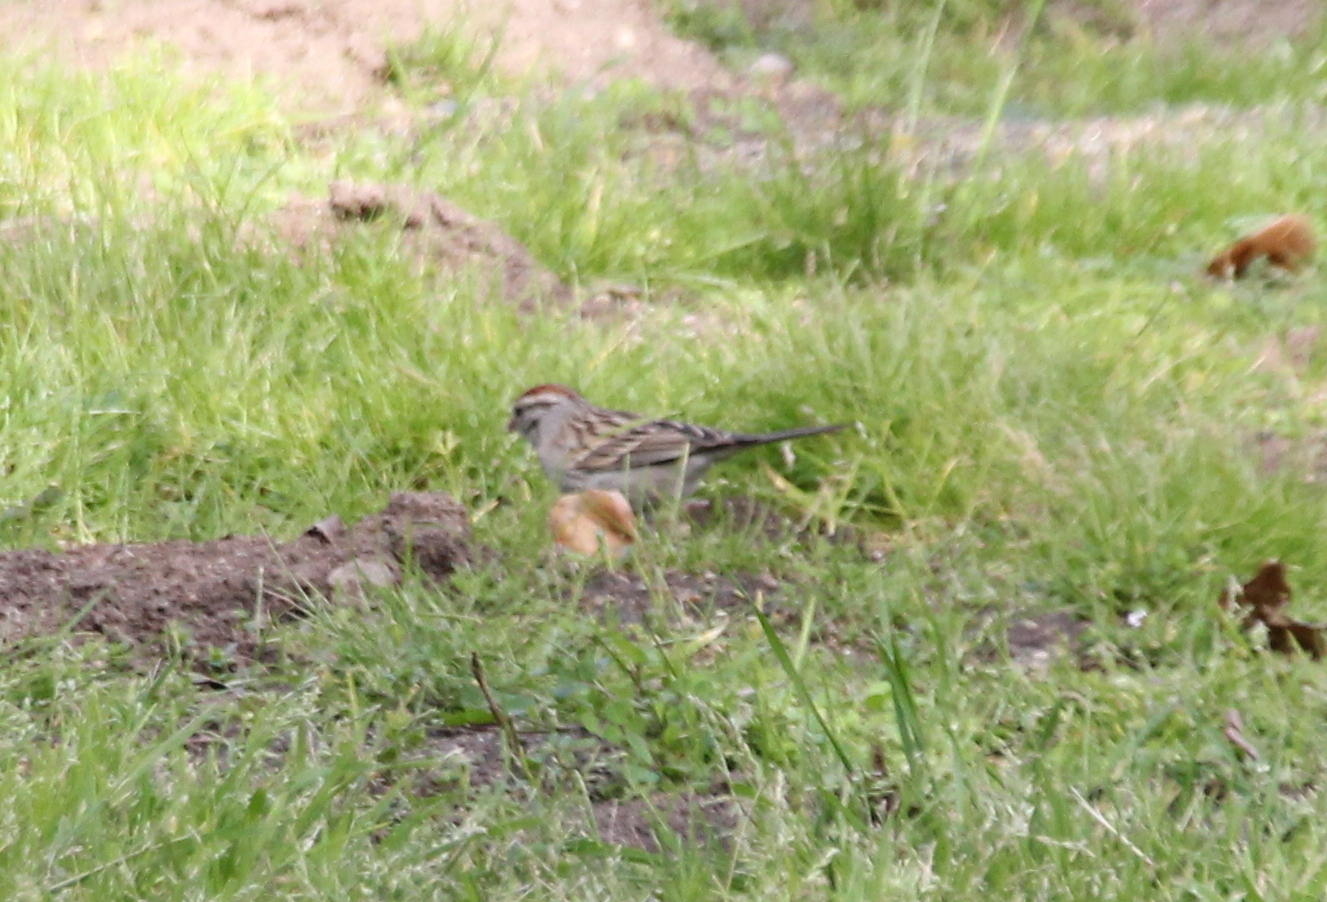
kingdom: Animalia
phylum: Chordata
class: Aves
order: Passeriformes
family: Passerellidae
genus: Spizella
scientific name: Spizella passerina
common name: Chipping sparrow
